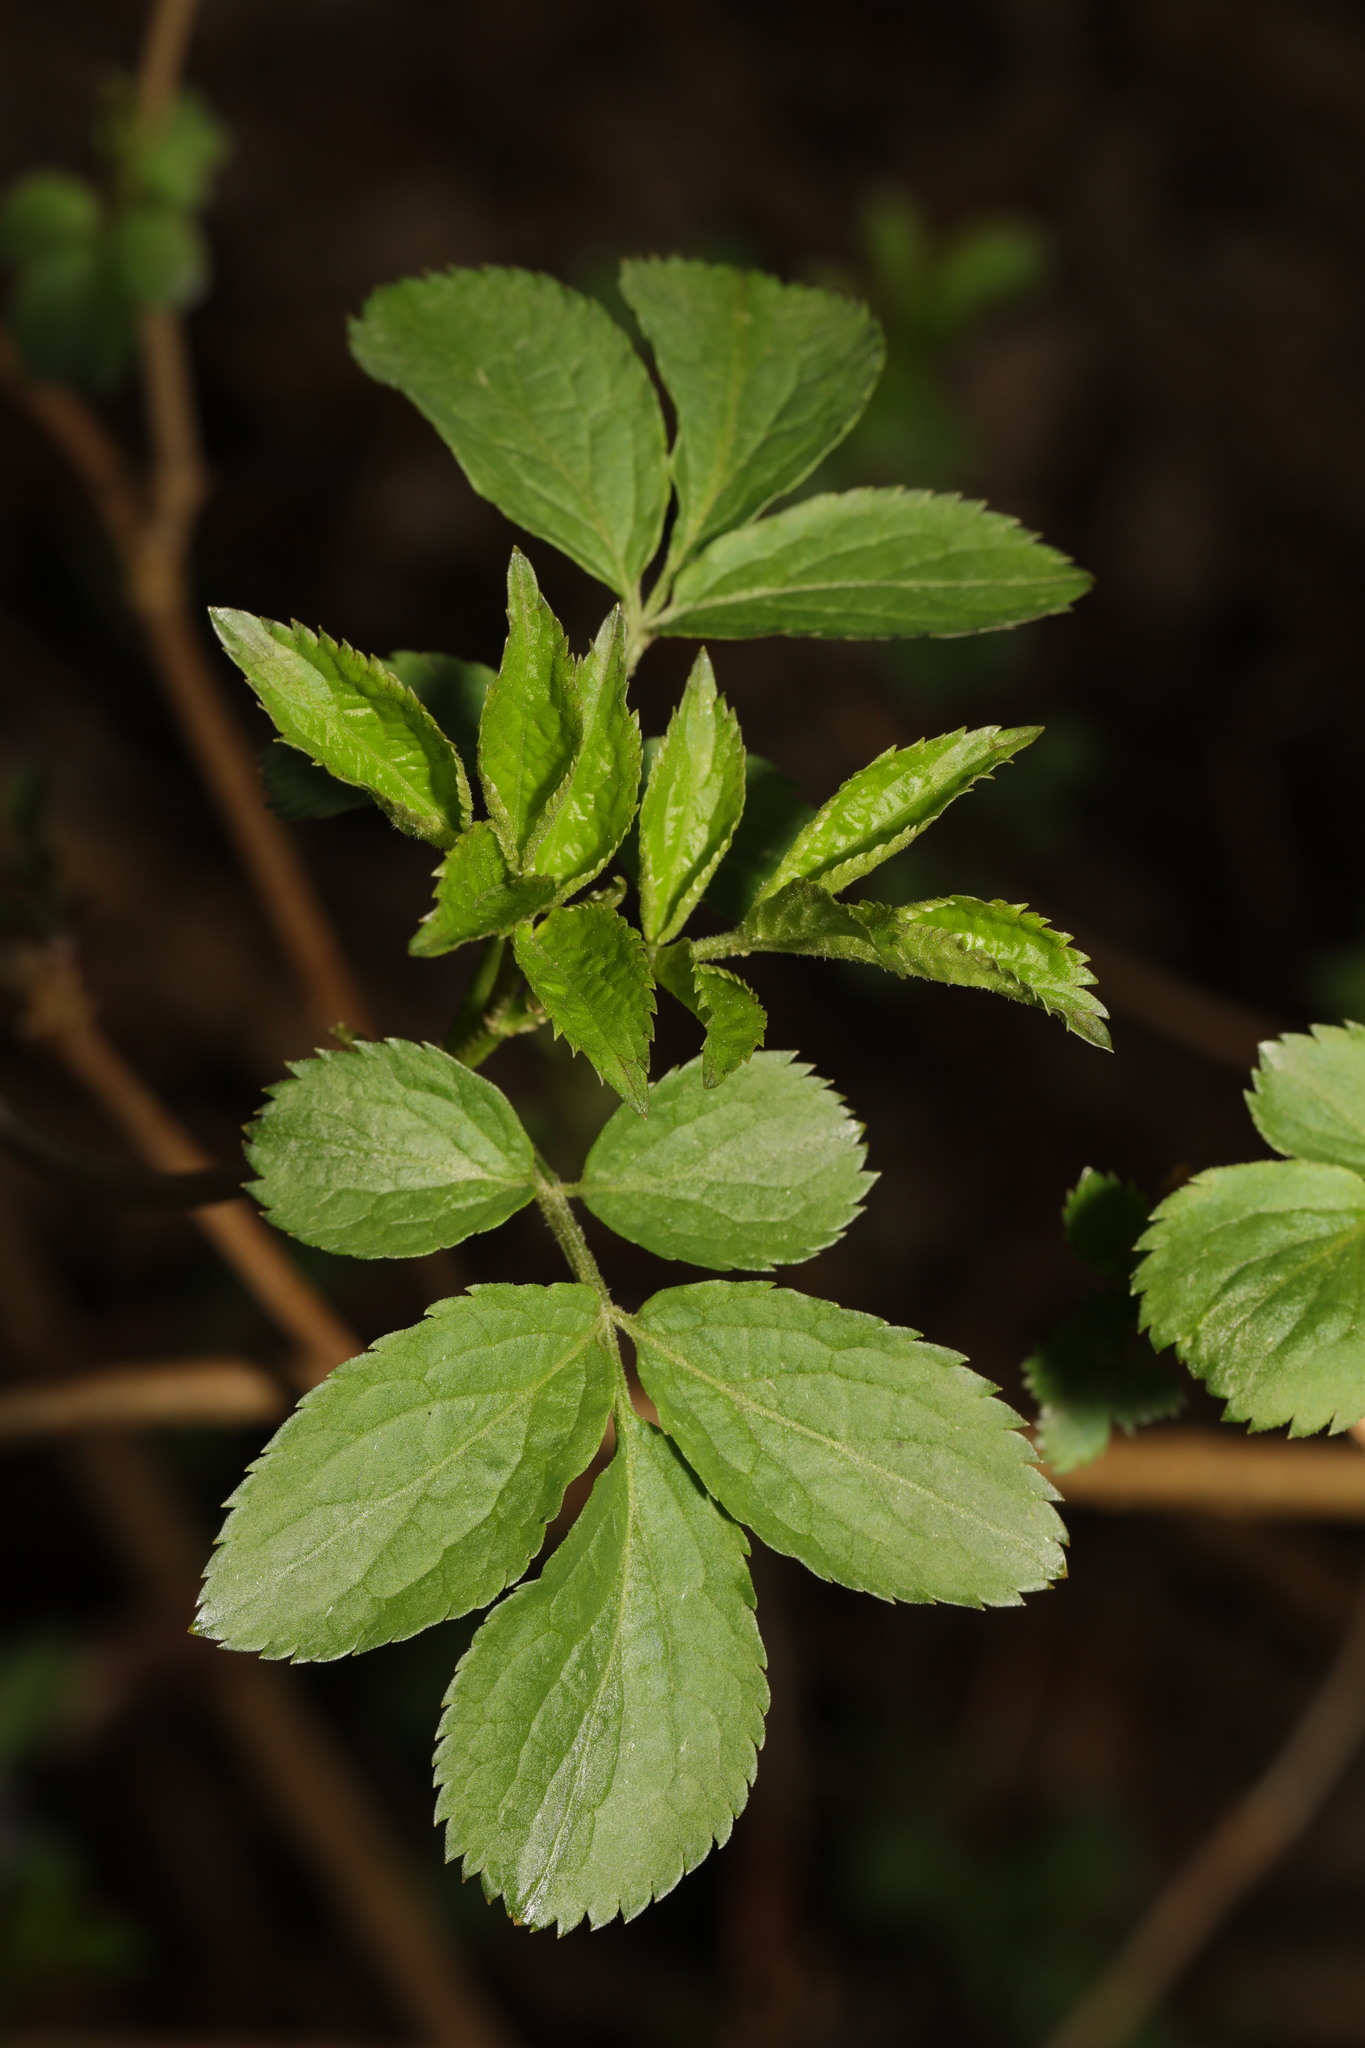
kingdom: Plantae
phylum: Tracheophyta
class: Magnoliopsida
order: Dipsacales
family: Viburnaceae
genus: Sambucus
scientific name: Sambucus nigra
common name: Elder
